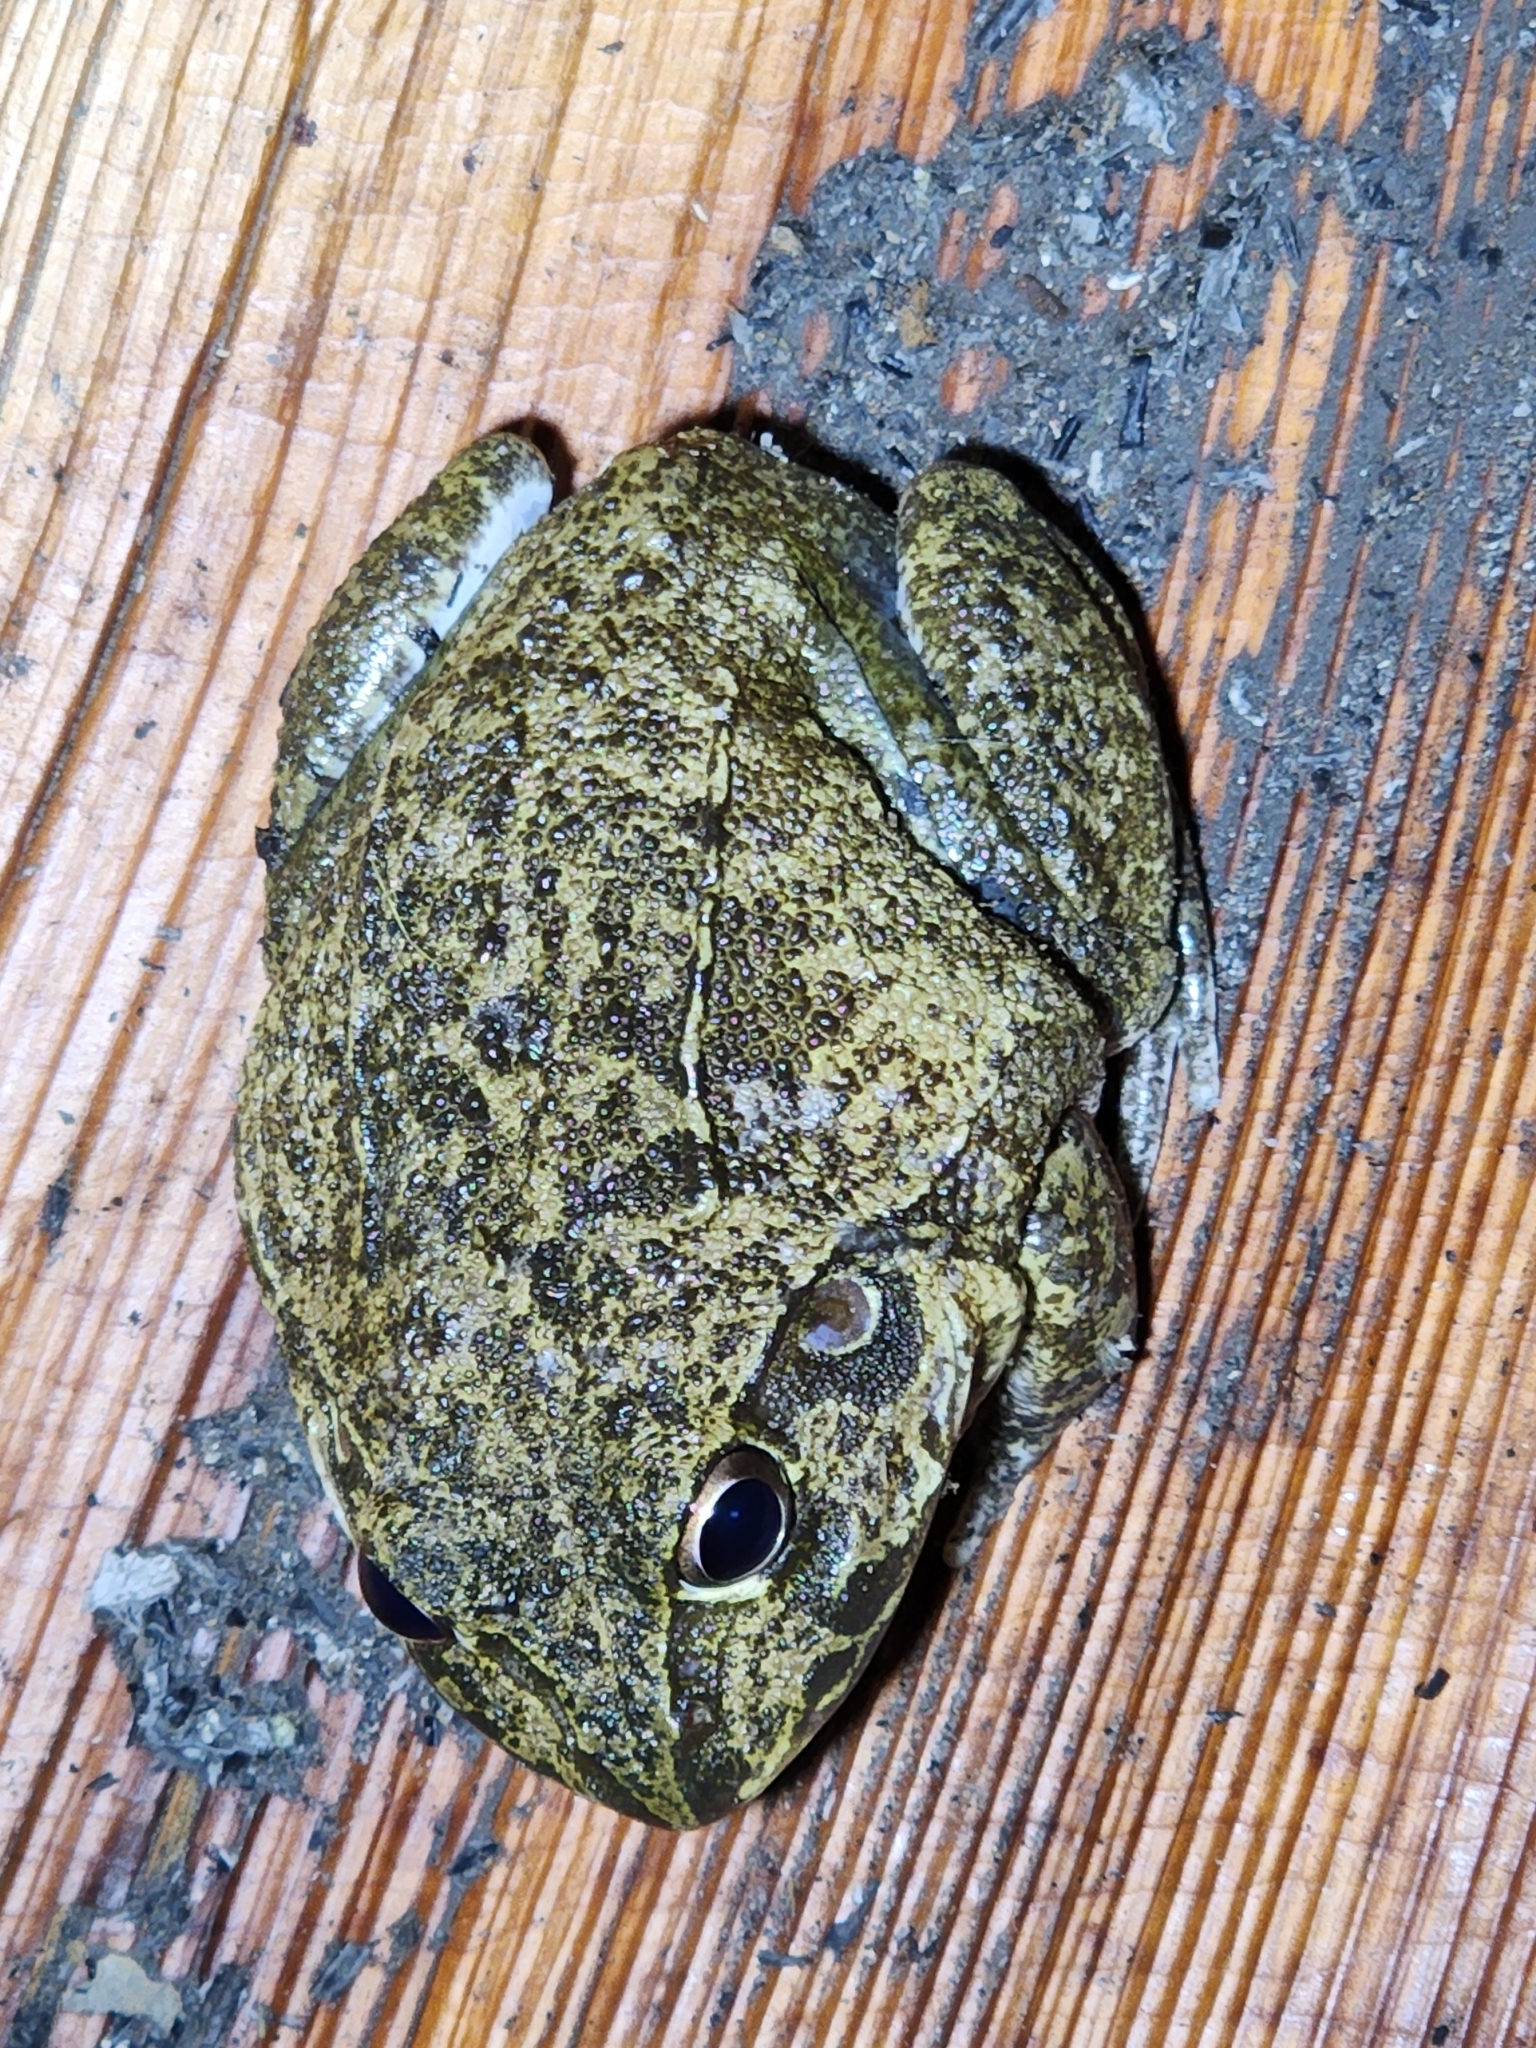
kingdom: Animalia
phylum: Chordata
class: Amphibia
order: Anura
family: Pelodryadidae
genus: Ranoidea
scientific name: Ranoidea novaehollandiae
